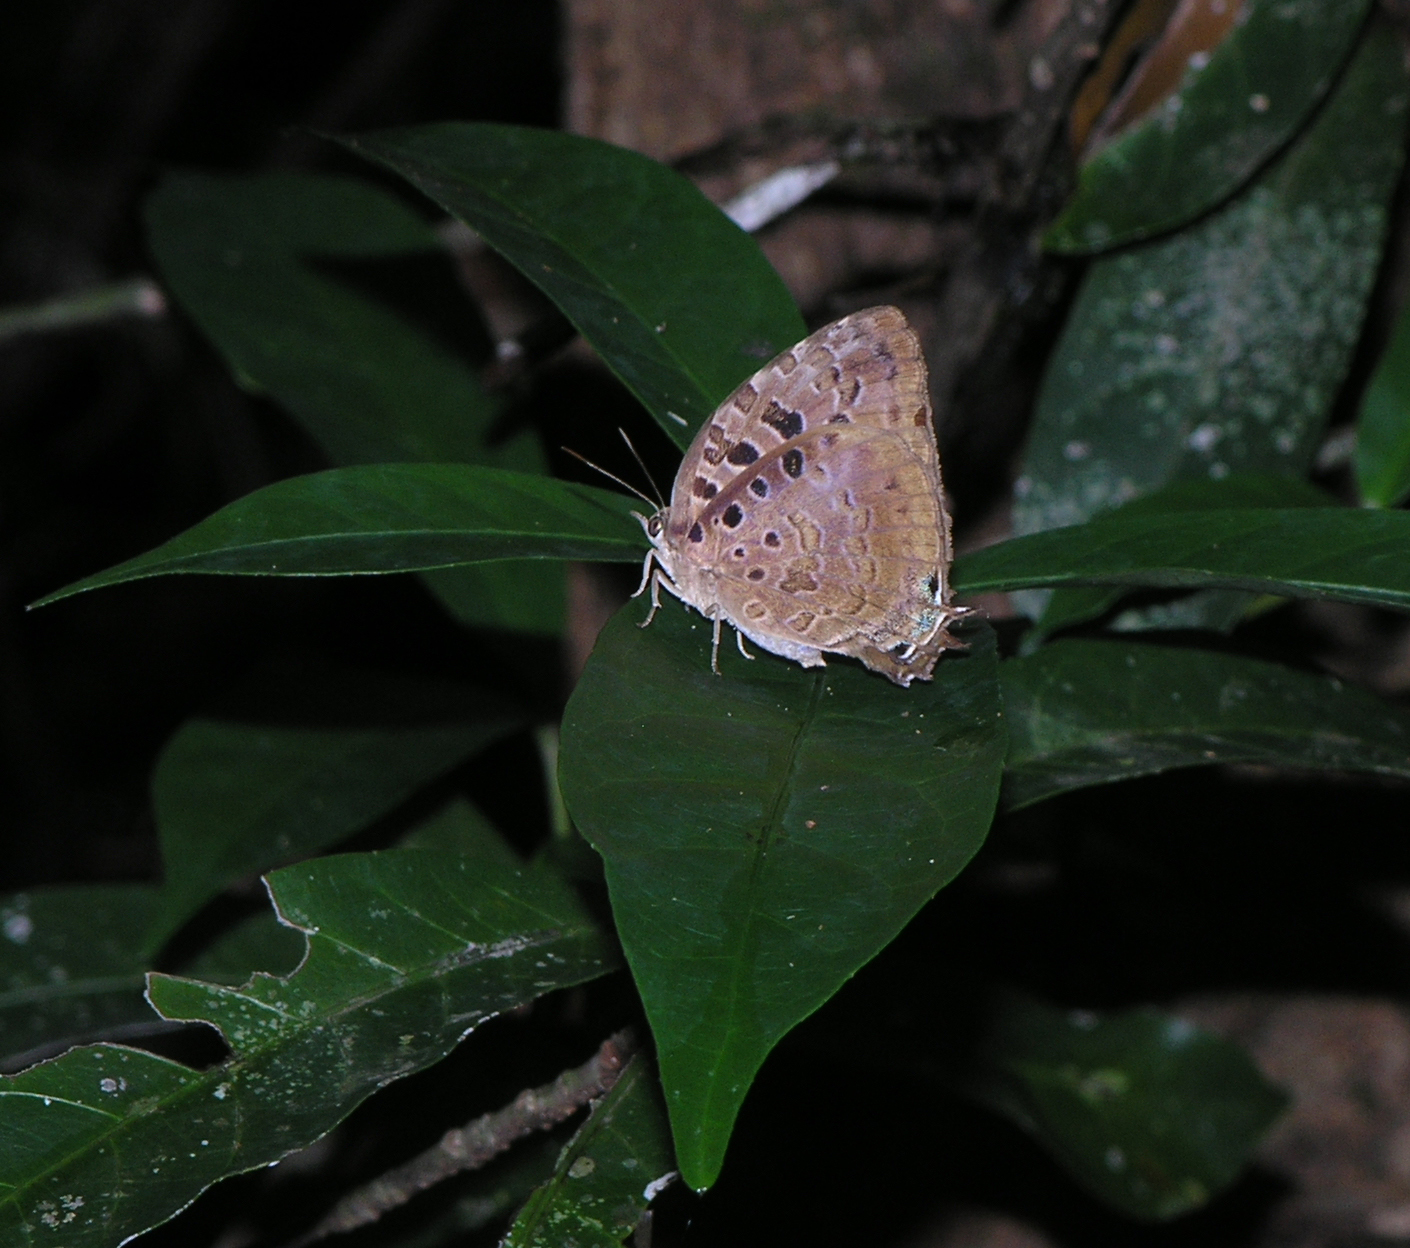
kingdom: Animalia
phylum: Arthropoda
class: Insecta
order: Lepidoptera
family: Lycaenidae
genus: Arhopala
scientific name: Arhopala anthelus
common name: Bushblue
